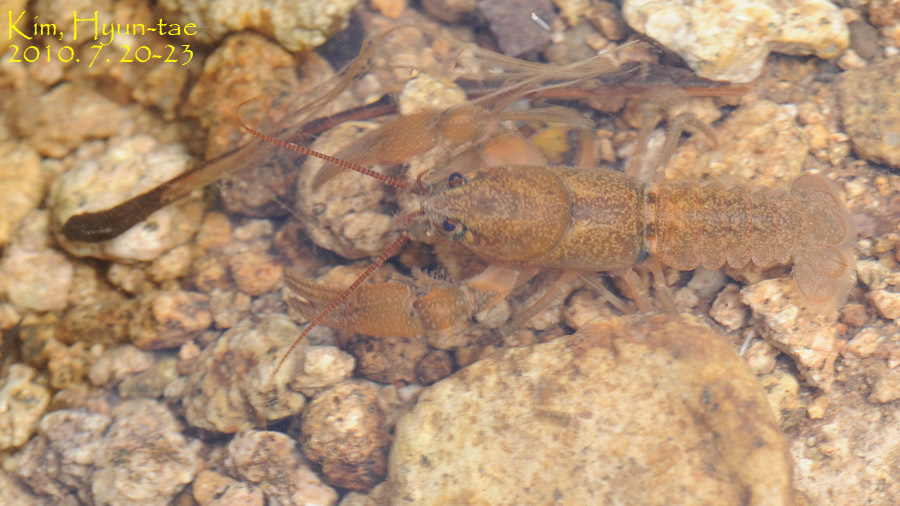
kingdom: Animalia
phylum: Arthropoda
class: Malacostraca
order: Decapoda
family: Cambaroididae
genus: Cambaroides
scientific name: Cambaroides similis
